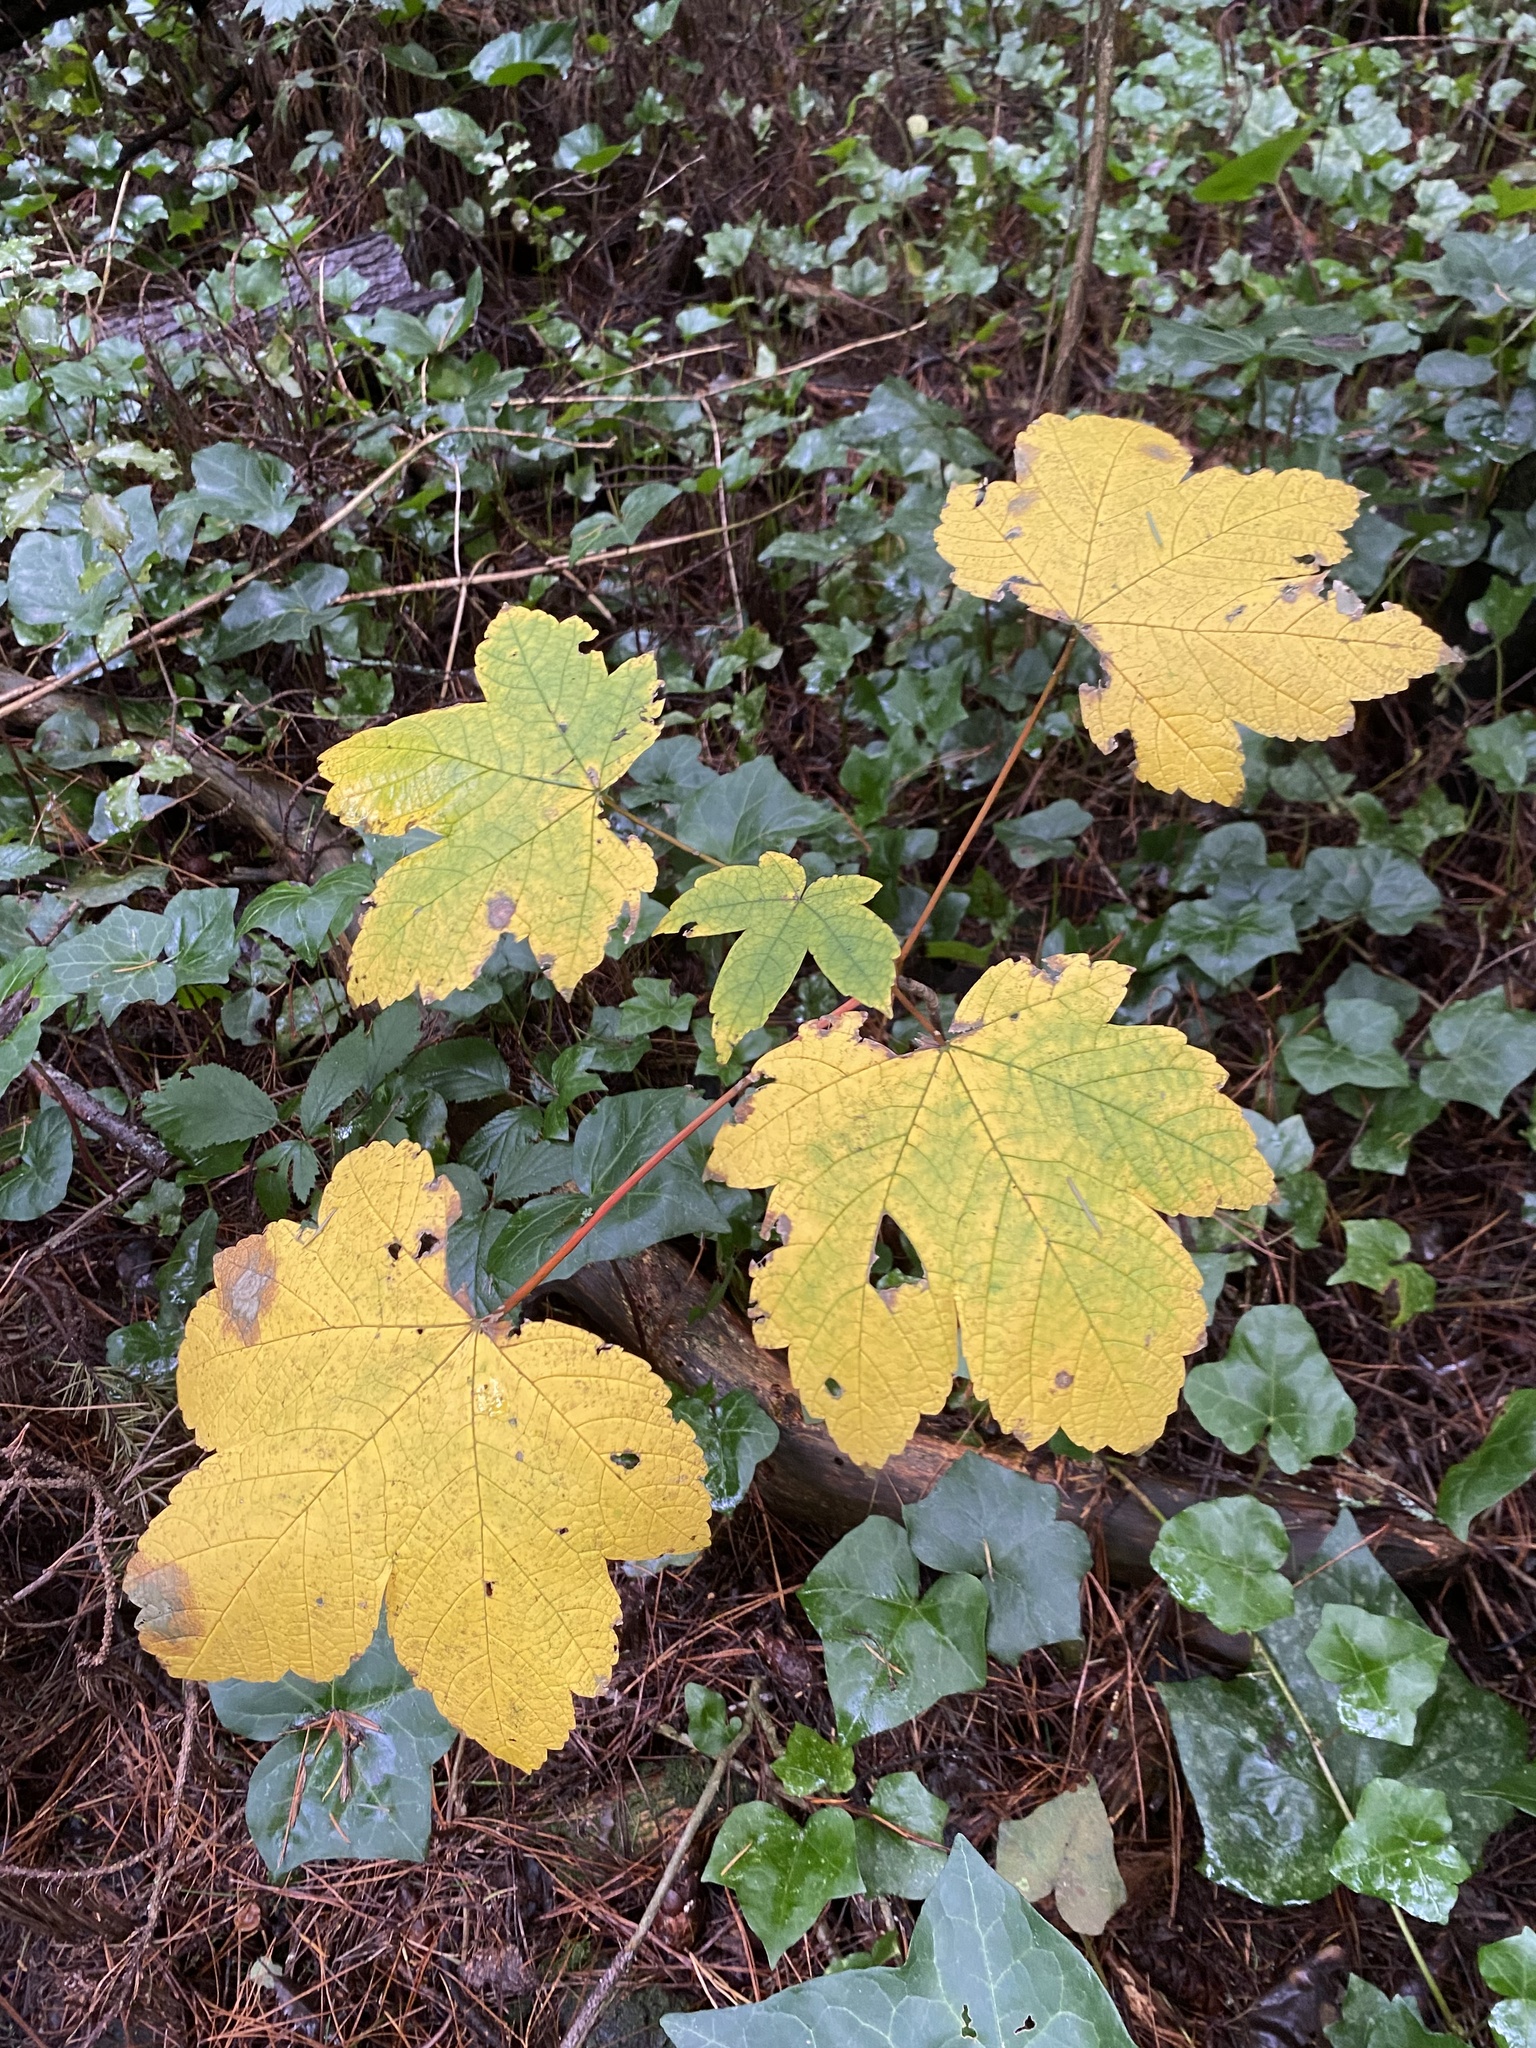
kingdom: Plantae
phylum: Tracheophyta
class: Magnoliopsida
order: Sapindales
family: Sapindaceae
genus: Acer
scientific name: Acer pseudoplatanus
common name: Sycamore
